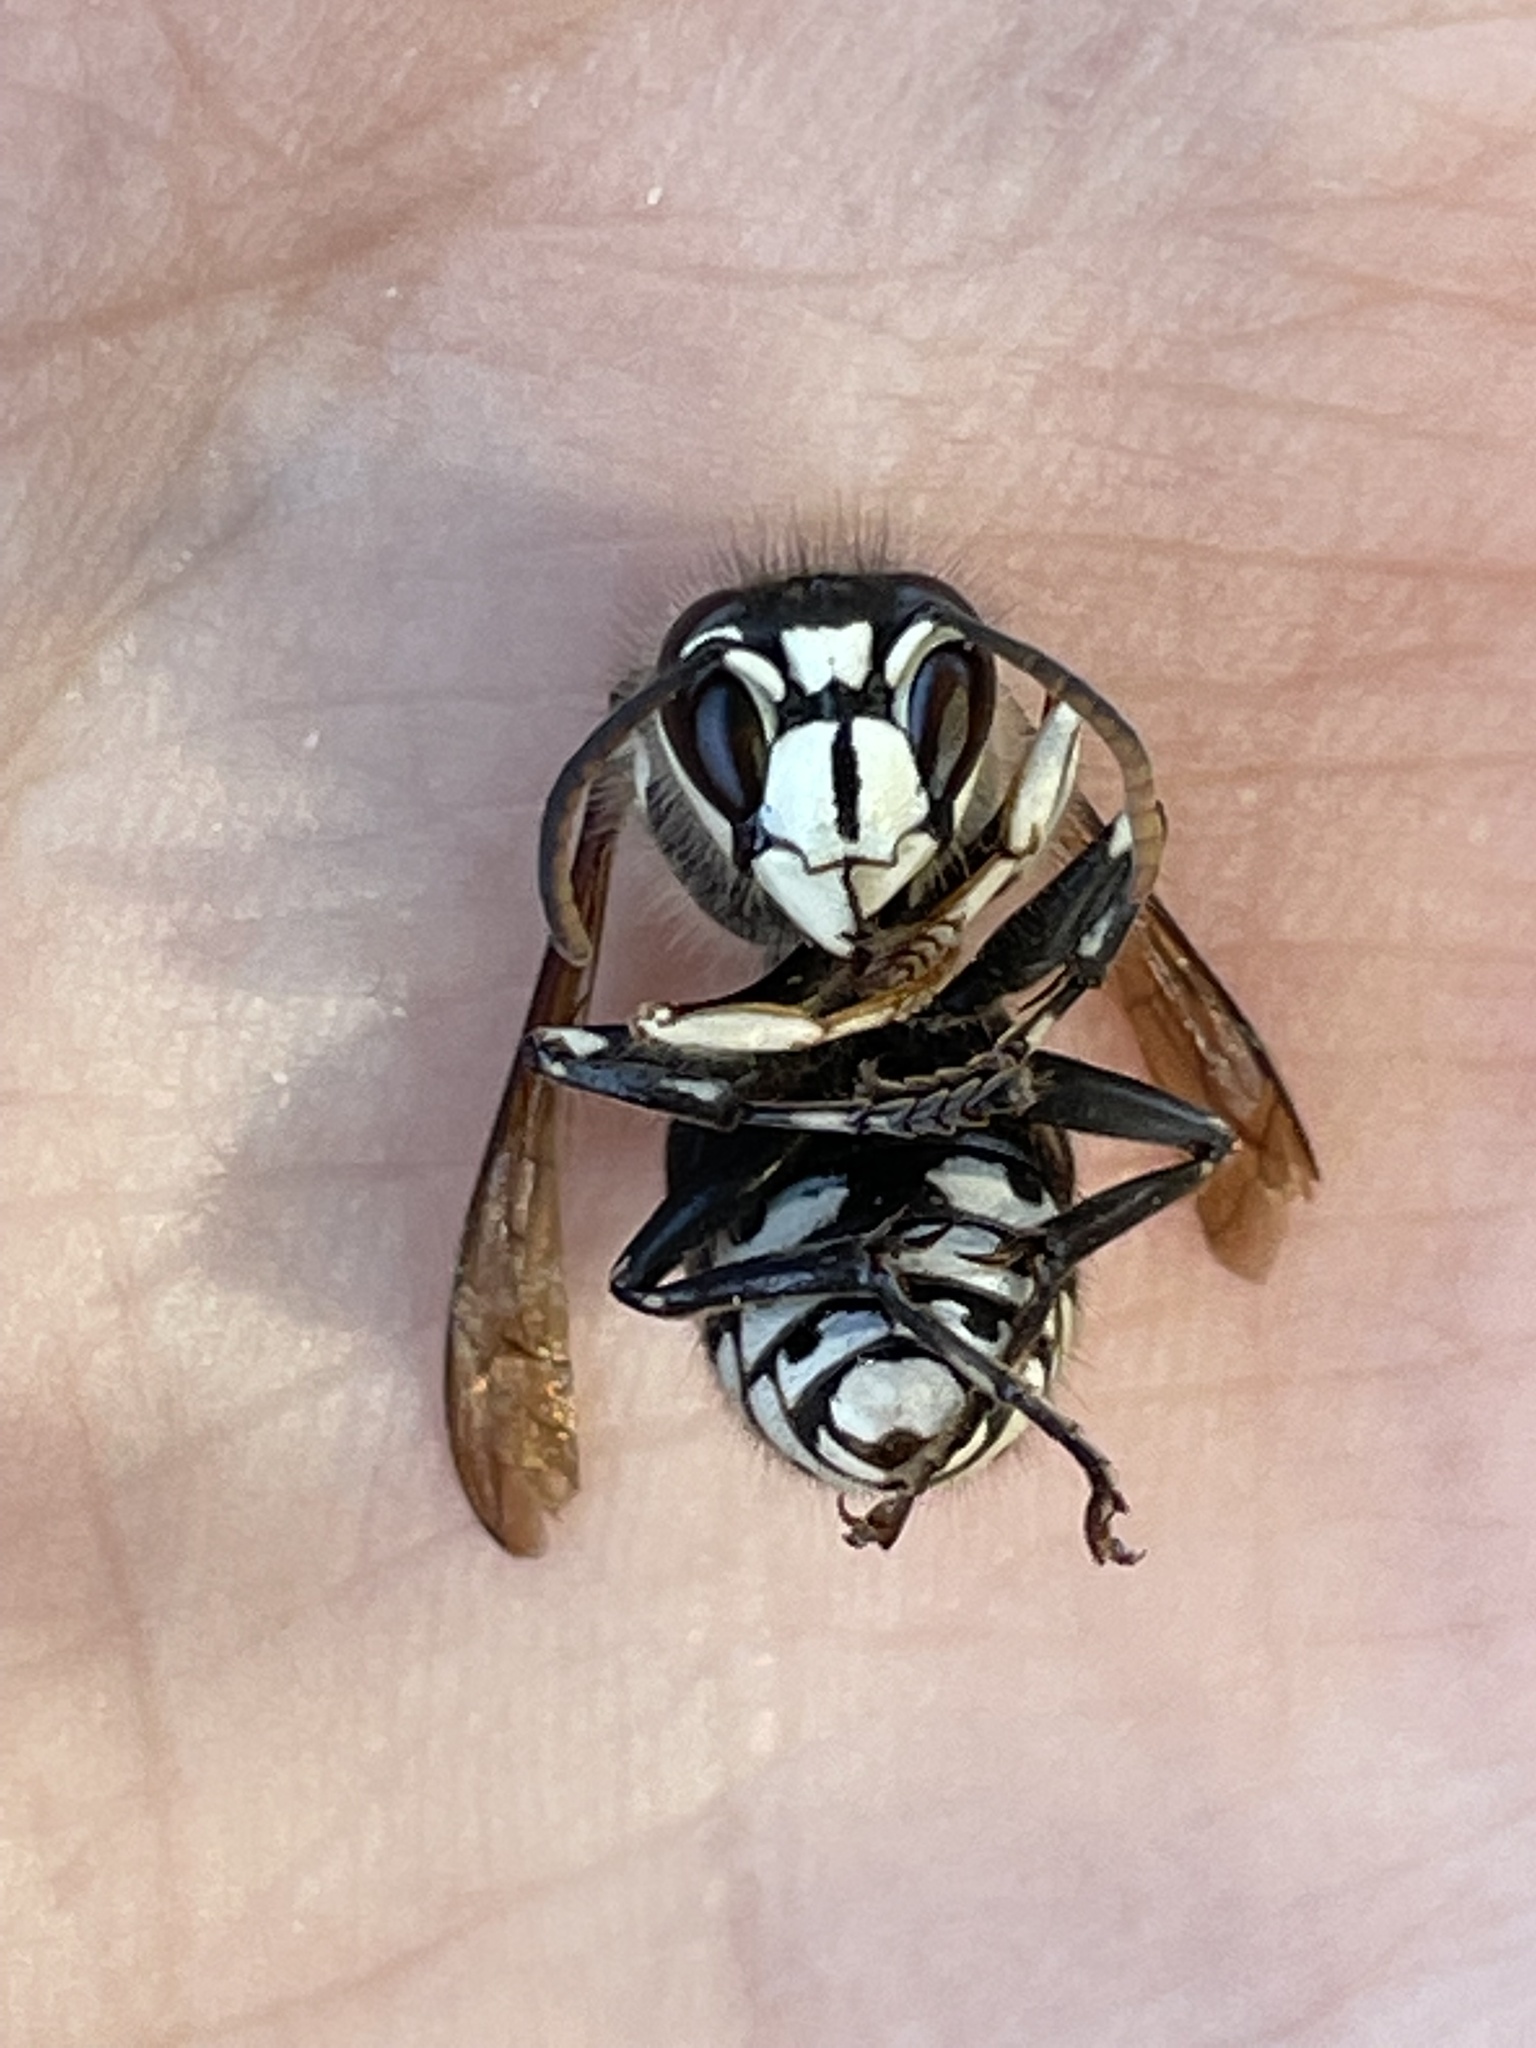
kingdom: Animalia
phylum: Arthropoda
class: Insecta
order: Hymenoptera
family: Vespidae
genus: Dolichovespula
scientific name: Dolichovespula maculata
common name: Bald-faced hornet
